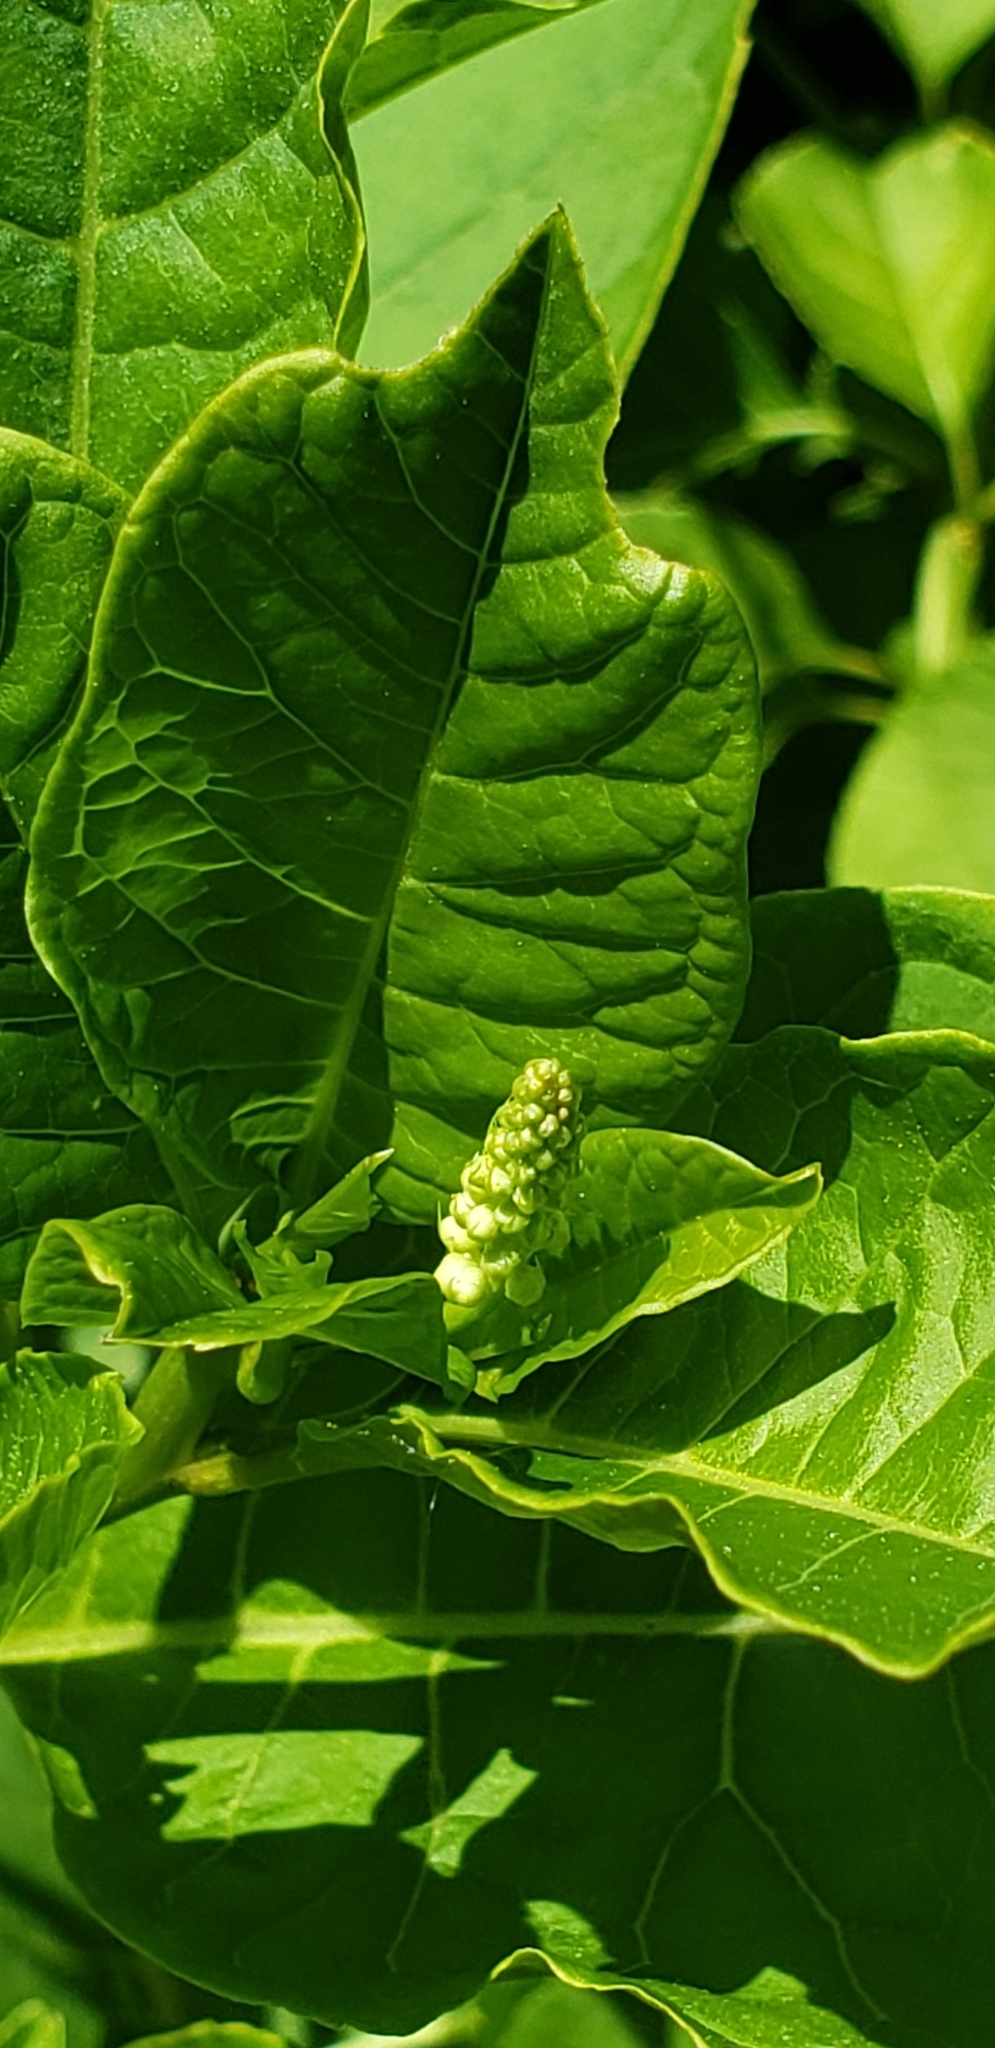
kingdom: Plantae
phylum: Tracheophyta
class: Magnoliopsida
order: Caryophyllales
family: Phytolaccaceae
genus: Phytolacca
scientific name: Phytolacca americana
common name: American pokeweed
